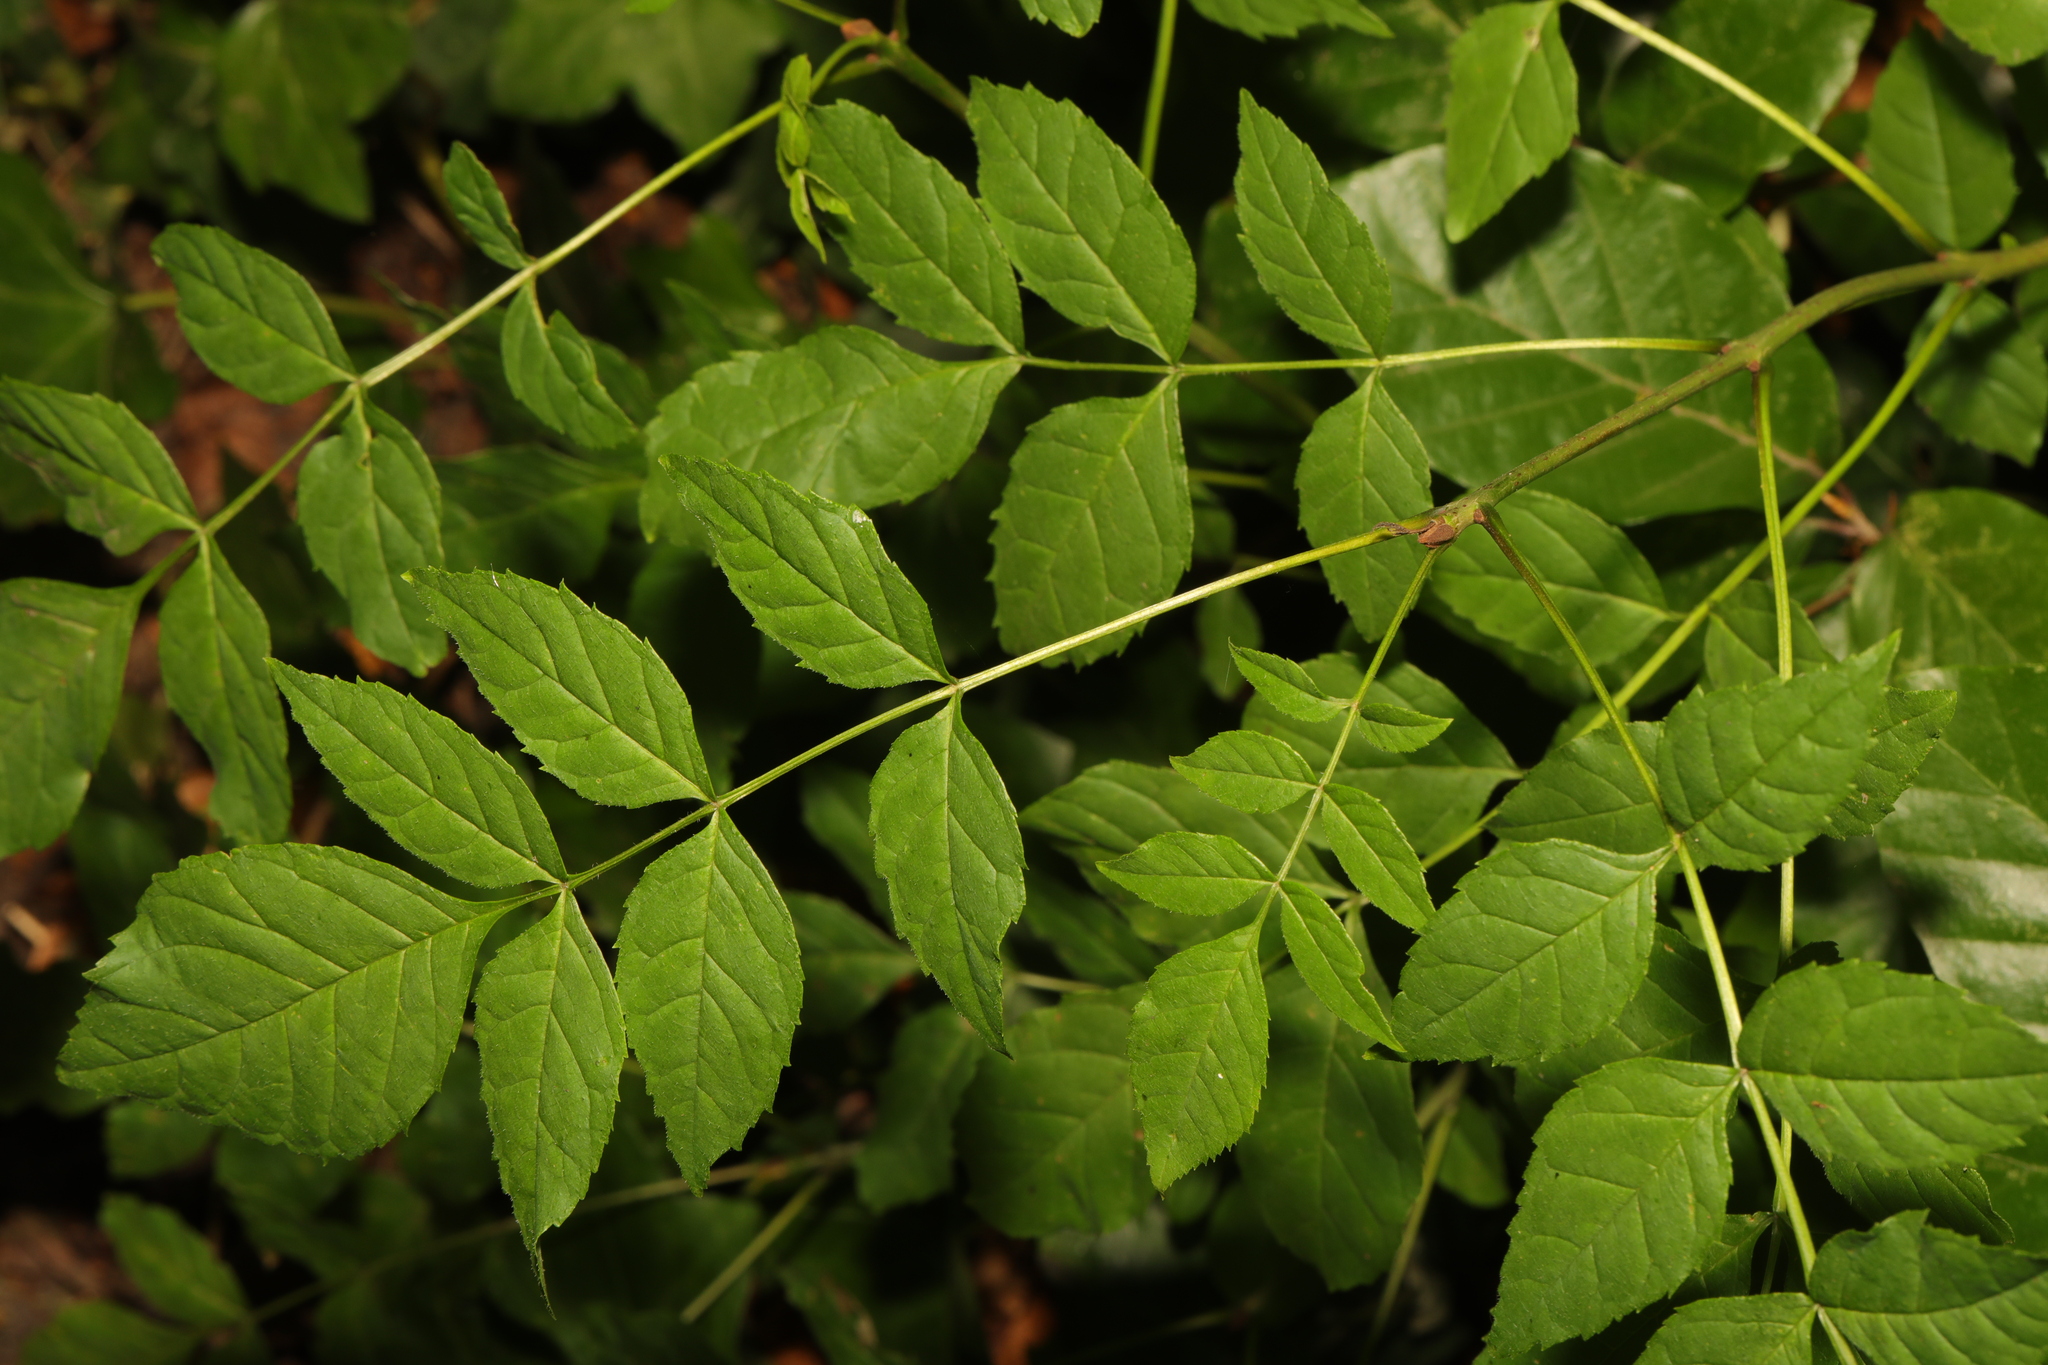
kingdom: Plantae
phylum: Tracheophyta
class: Magnoliopsida
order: Lamiales
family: Oleaceae
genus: Fraxinus
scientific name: Fraxinus excelsior
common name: European ash
